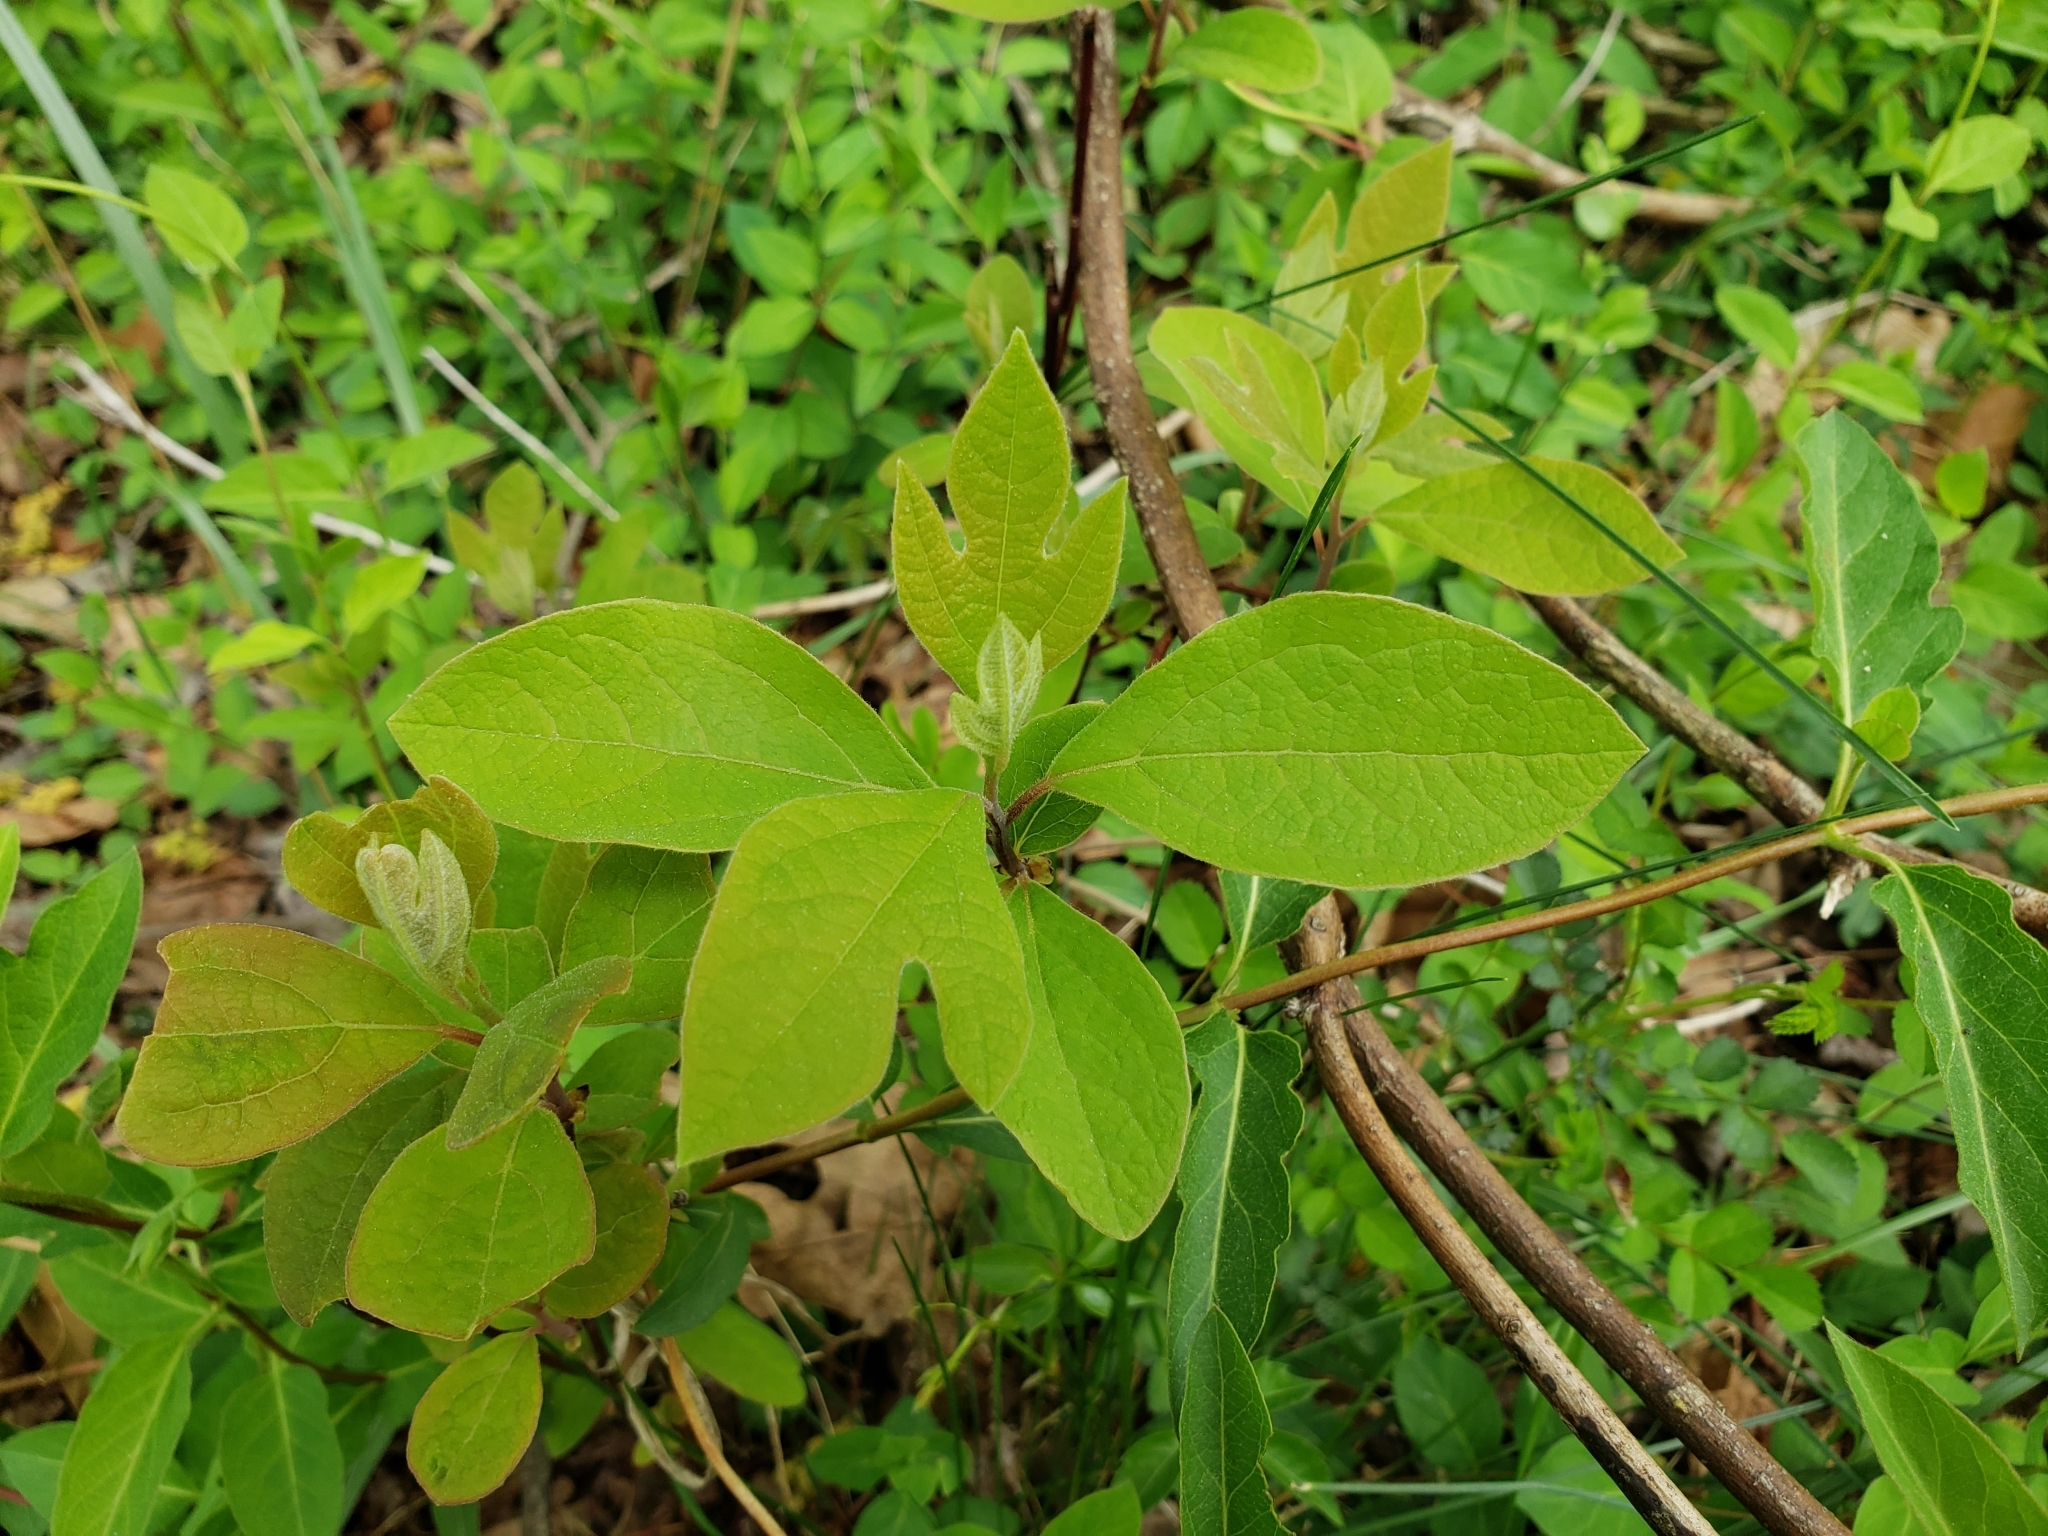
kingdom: Plantae
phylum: Tracheophyta
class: Magnoliopsida
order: Laurales
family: Lauraceae
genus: Sassafras
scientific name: Sassafras albidum
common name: Sassafras
